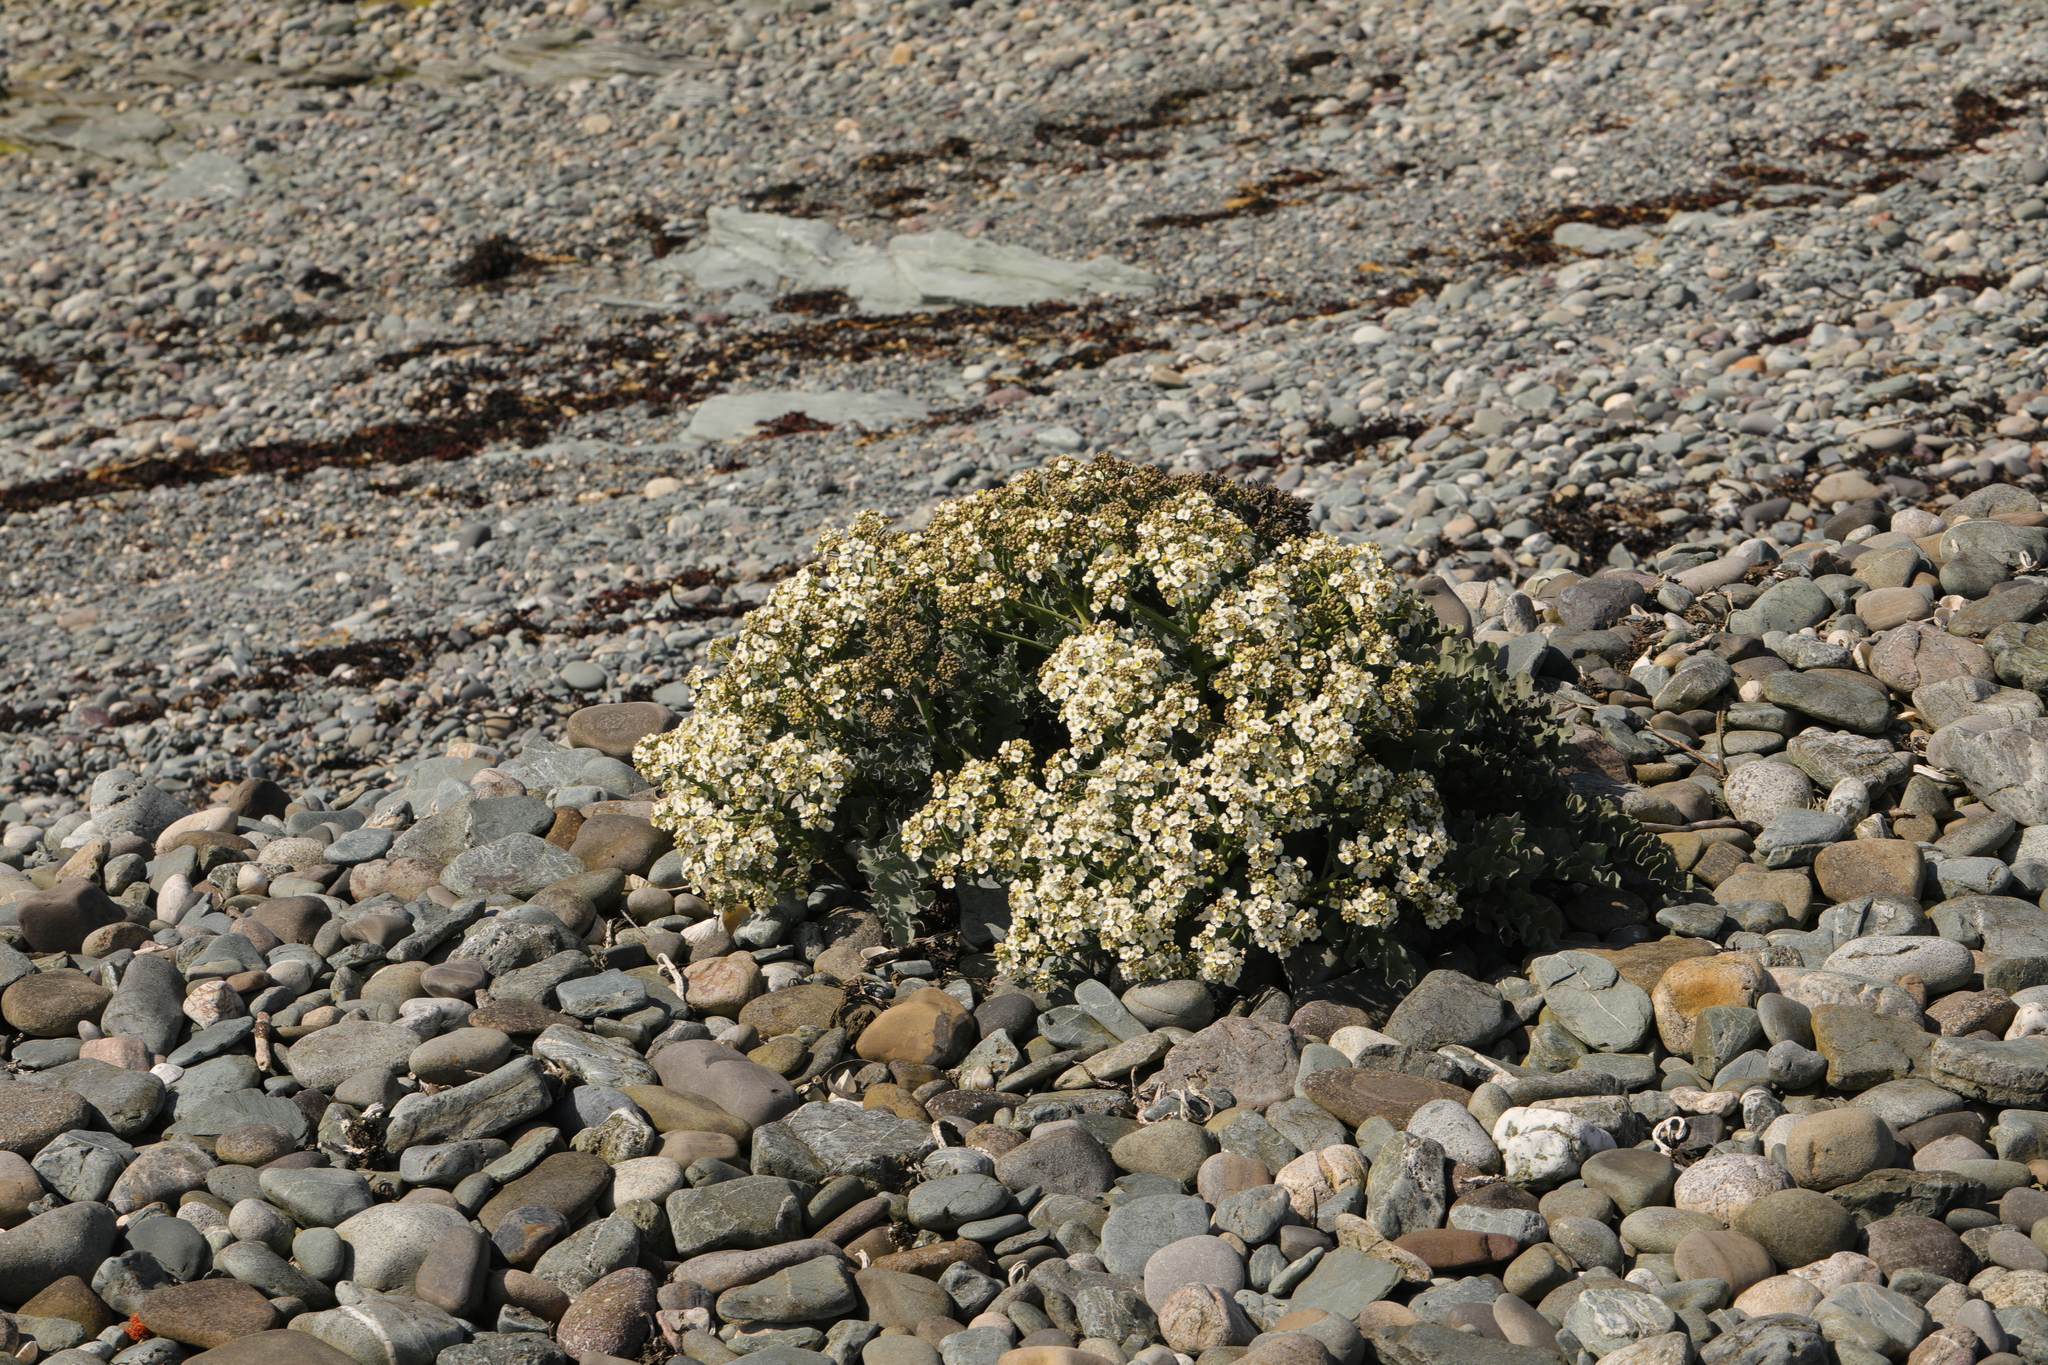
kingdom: Plantae
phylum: Tracheophyta
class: Magnoliopsida
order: Brassicales
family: Brassicaceae
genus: Crambe
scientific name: Crambe maritima
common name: Sea-kale
